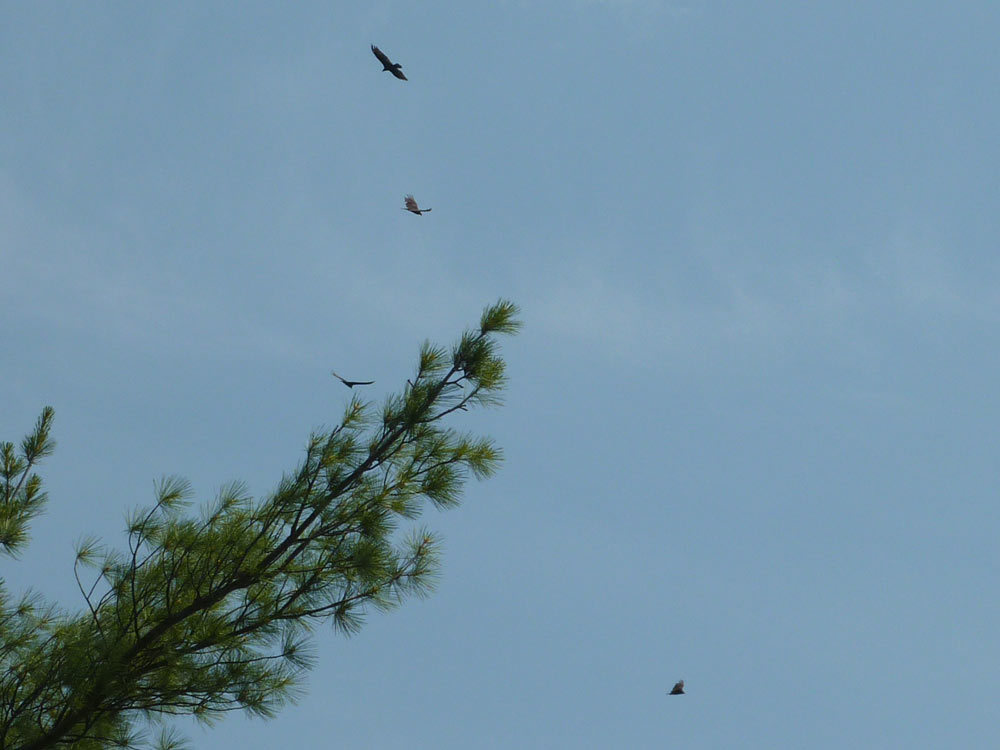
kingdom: Animalia
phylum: Chordata
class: Aves
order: Accipitriformes
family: Cathartidae
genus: Cathartes
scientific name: Cathartes aura
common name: Turkey vulture
